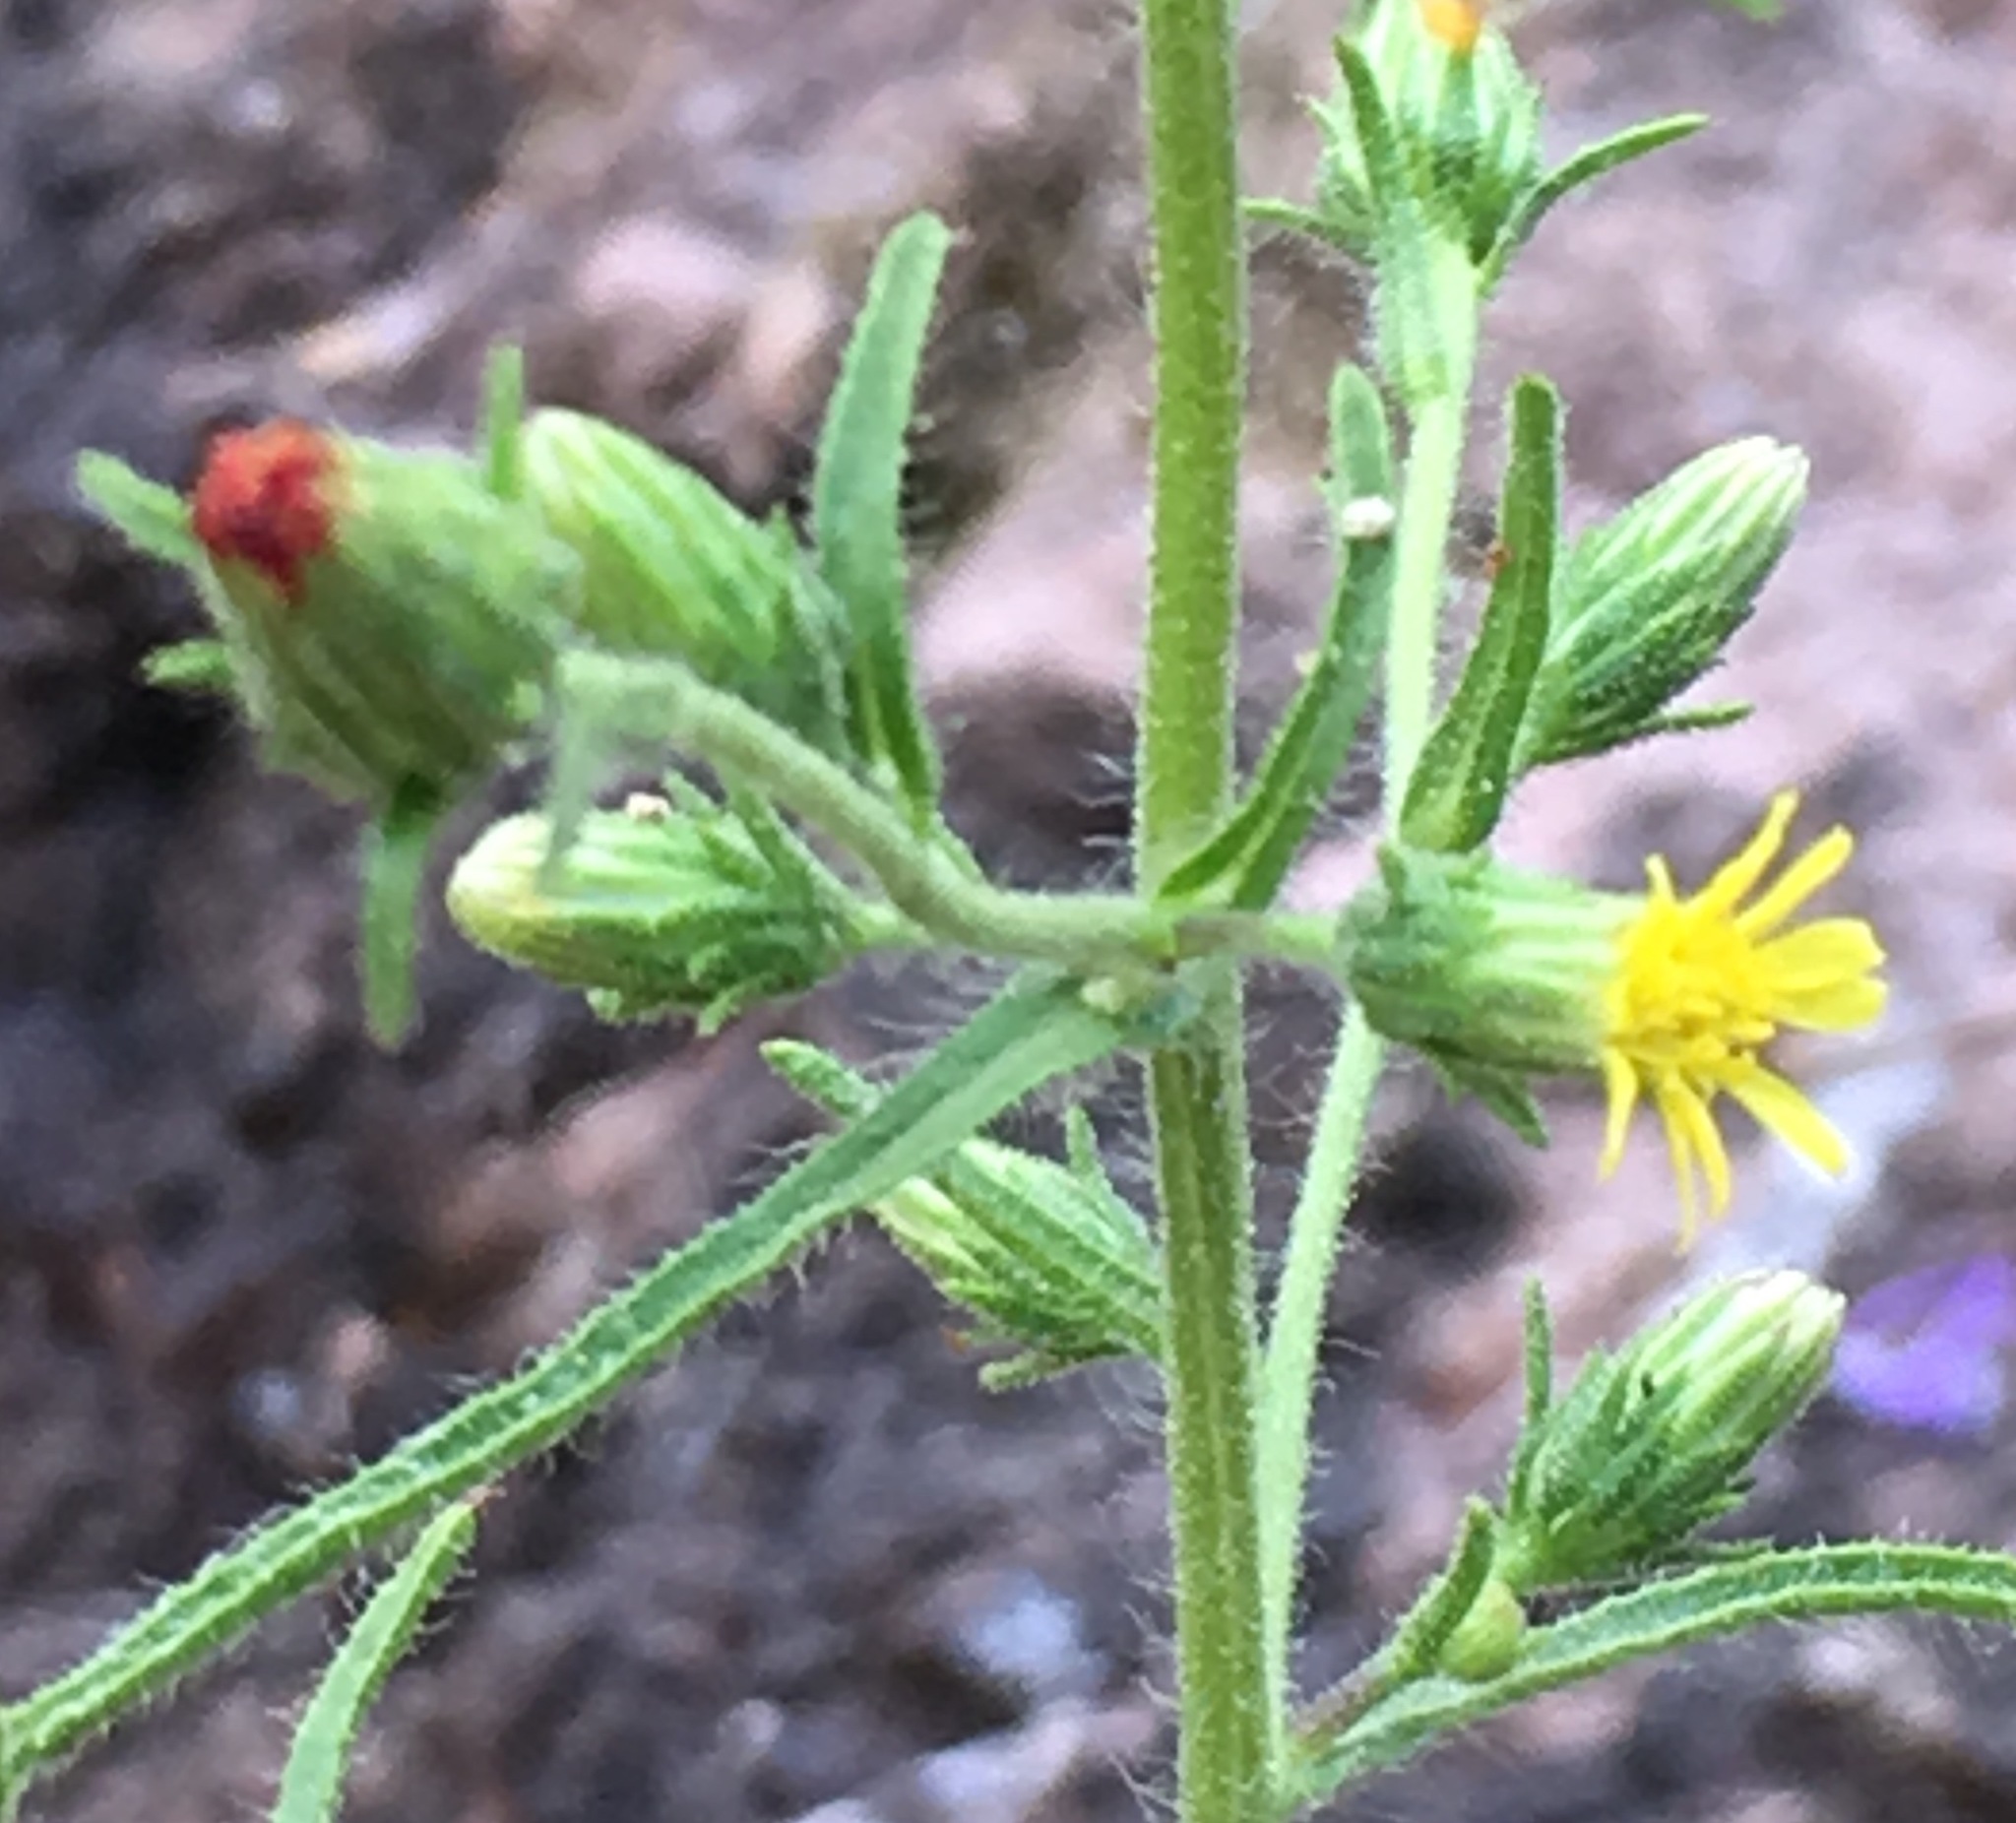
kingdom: Plantae
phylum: Tracheophyta
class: Magnoliopsida
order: Asterales
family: Asteraceae
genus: Dittrichia
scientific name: Dittrichia graveolens
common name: Stinking fleabane
